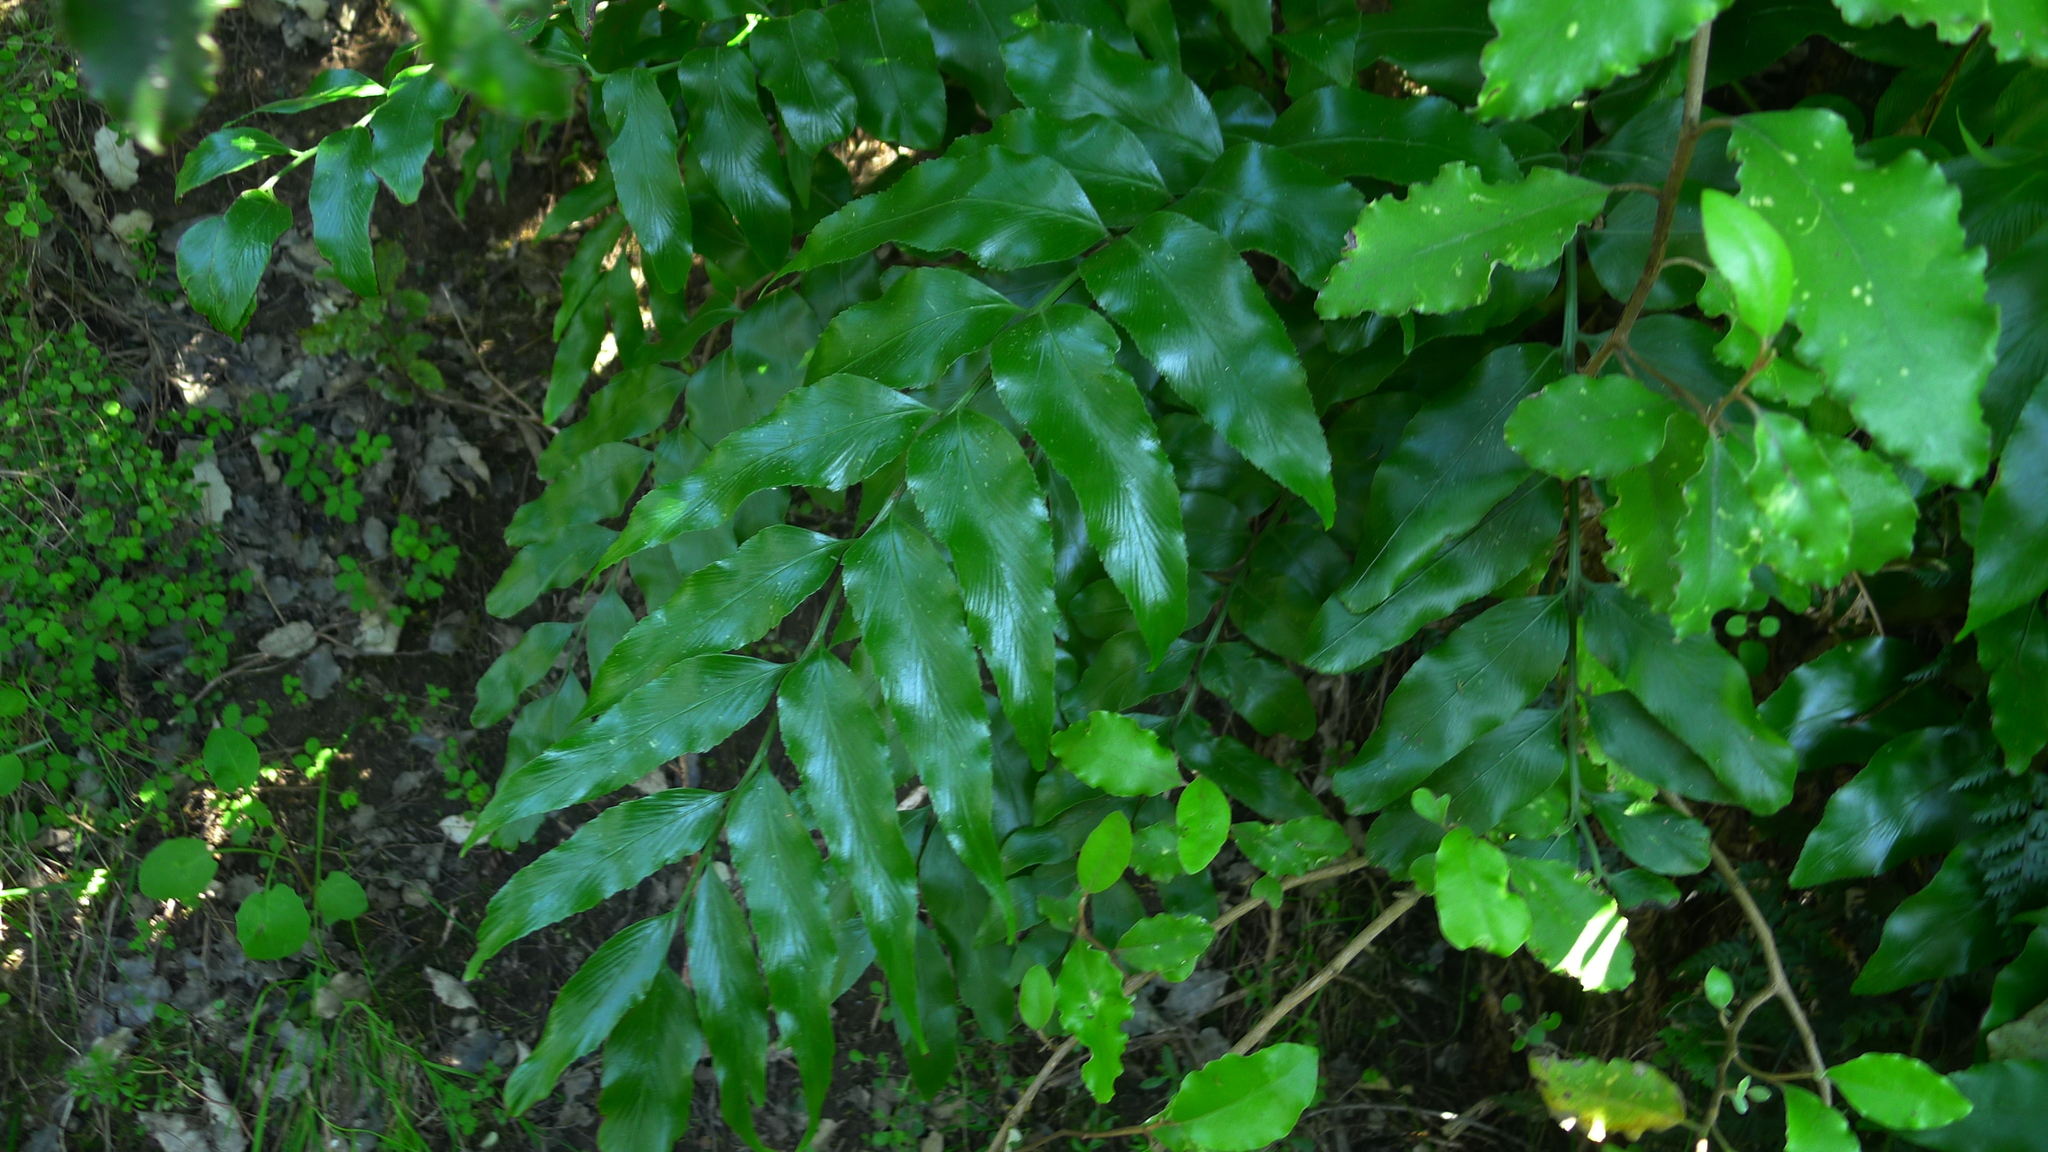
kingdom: Plantae
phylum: Tracheophyta
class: Polypodiopsida
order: Polypodiales
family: Aspleniaceae
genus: Asplenium
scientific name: Asplenium oblongifolium
